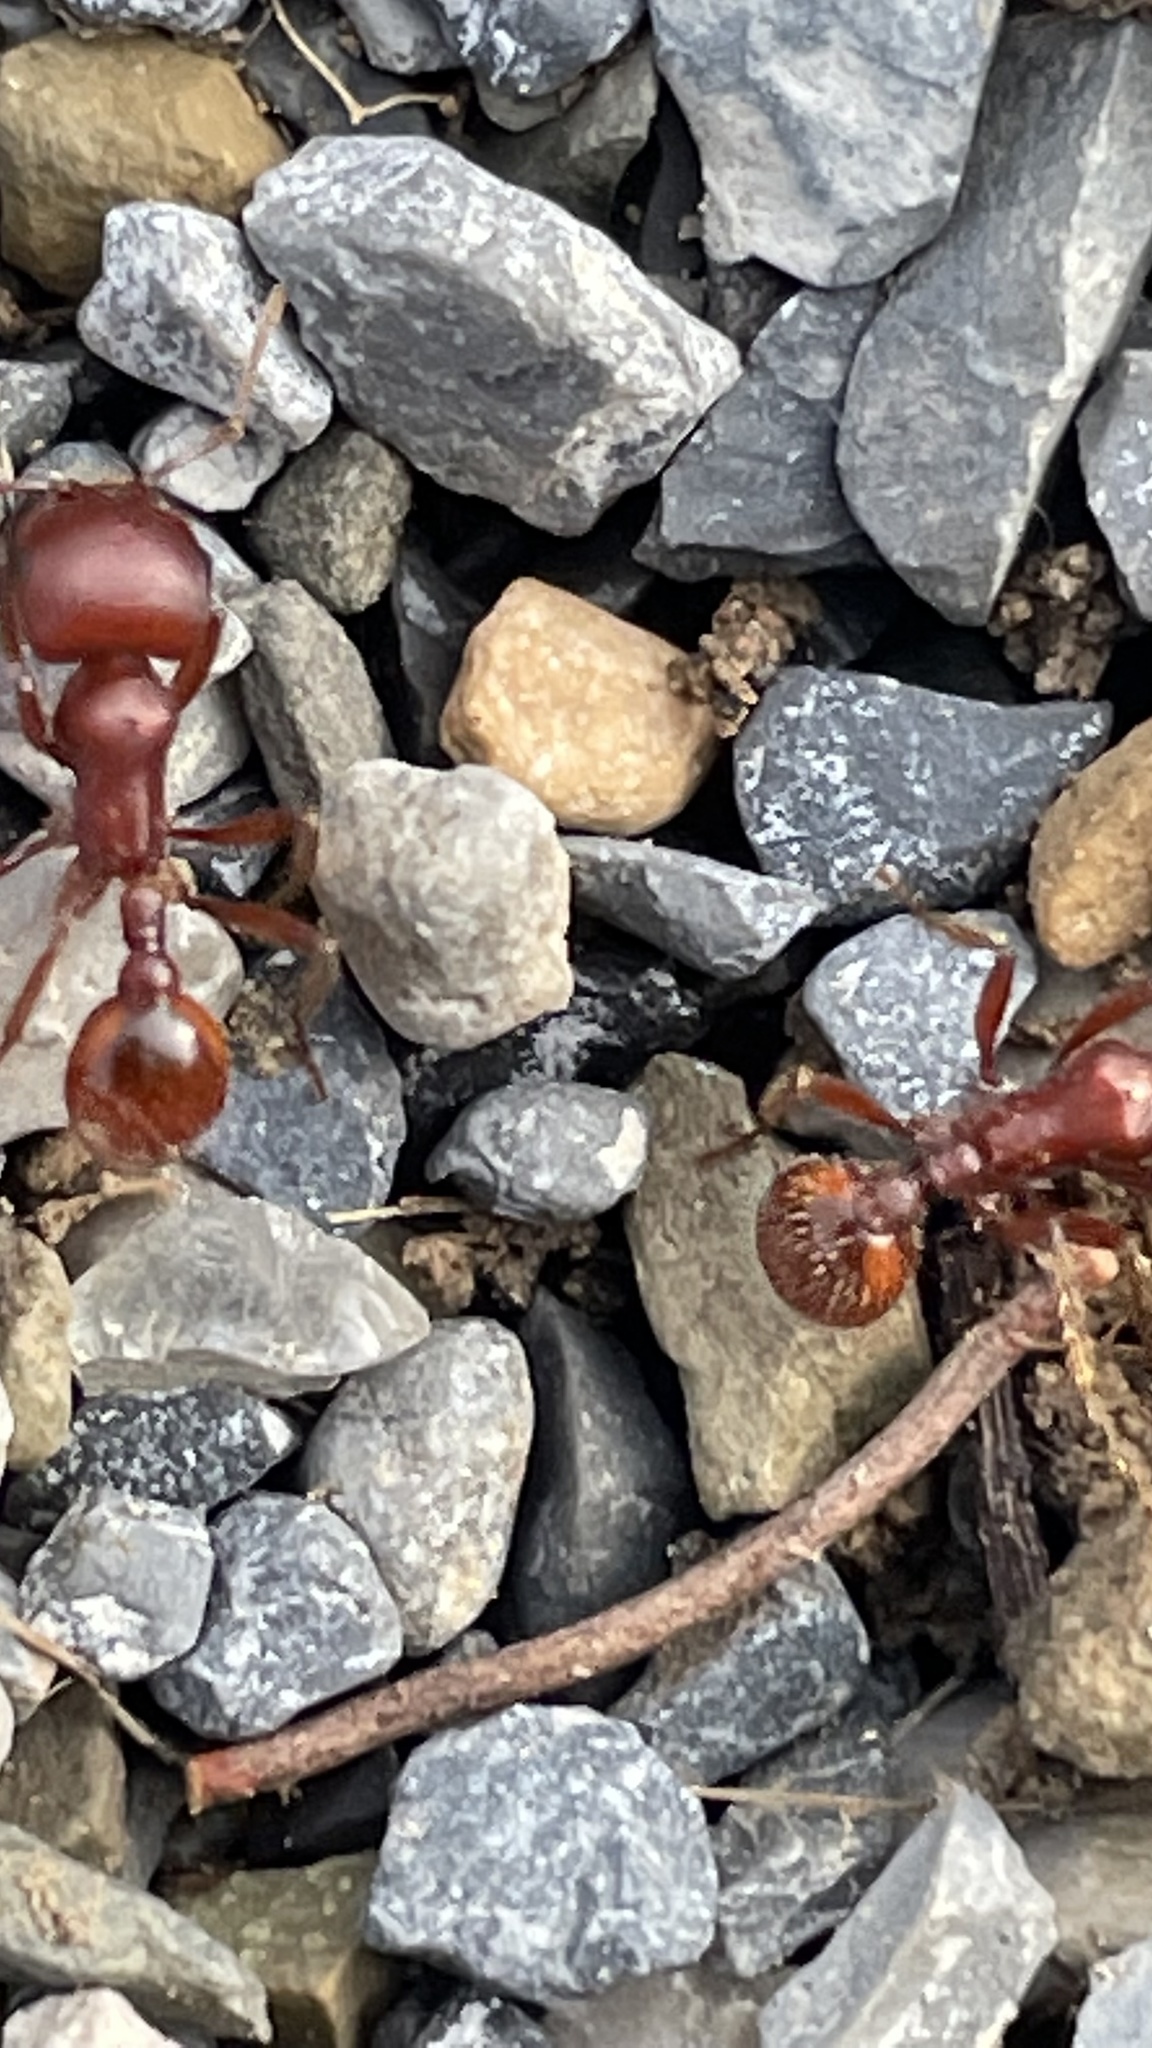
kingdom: Animalia
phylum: Arthropoda
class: Insecta
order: Hymenoptera
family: Formicidae
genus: Pogonomyrmex
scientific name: Pogonomyrmex barbatus
